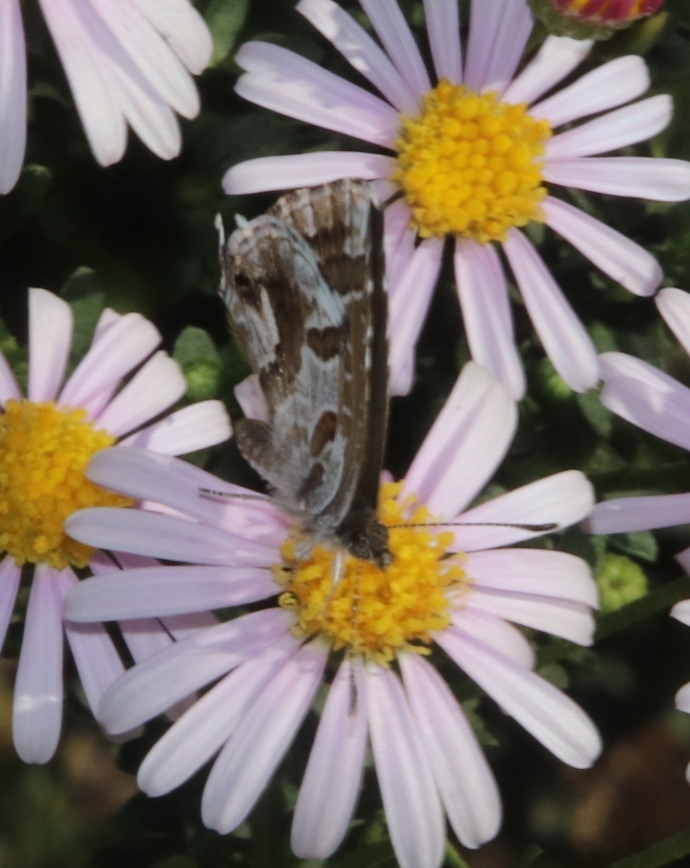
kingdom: Animalia
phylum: Arthropoda
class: Insecta
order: Lepidoptera
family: Lycaenidae
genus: Cacyreus
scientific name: Cacyreus marshalli
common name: Geranium bronze
